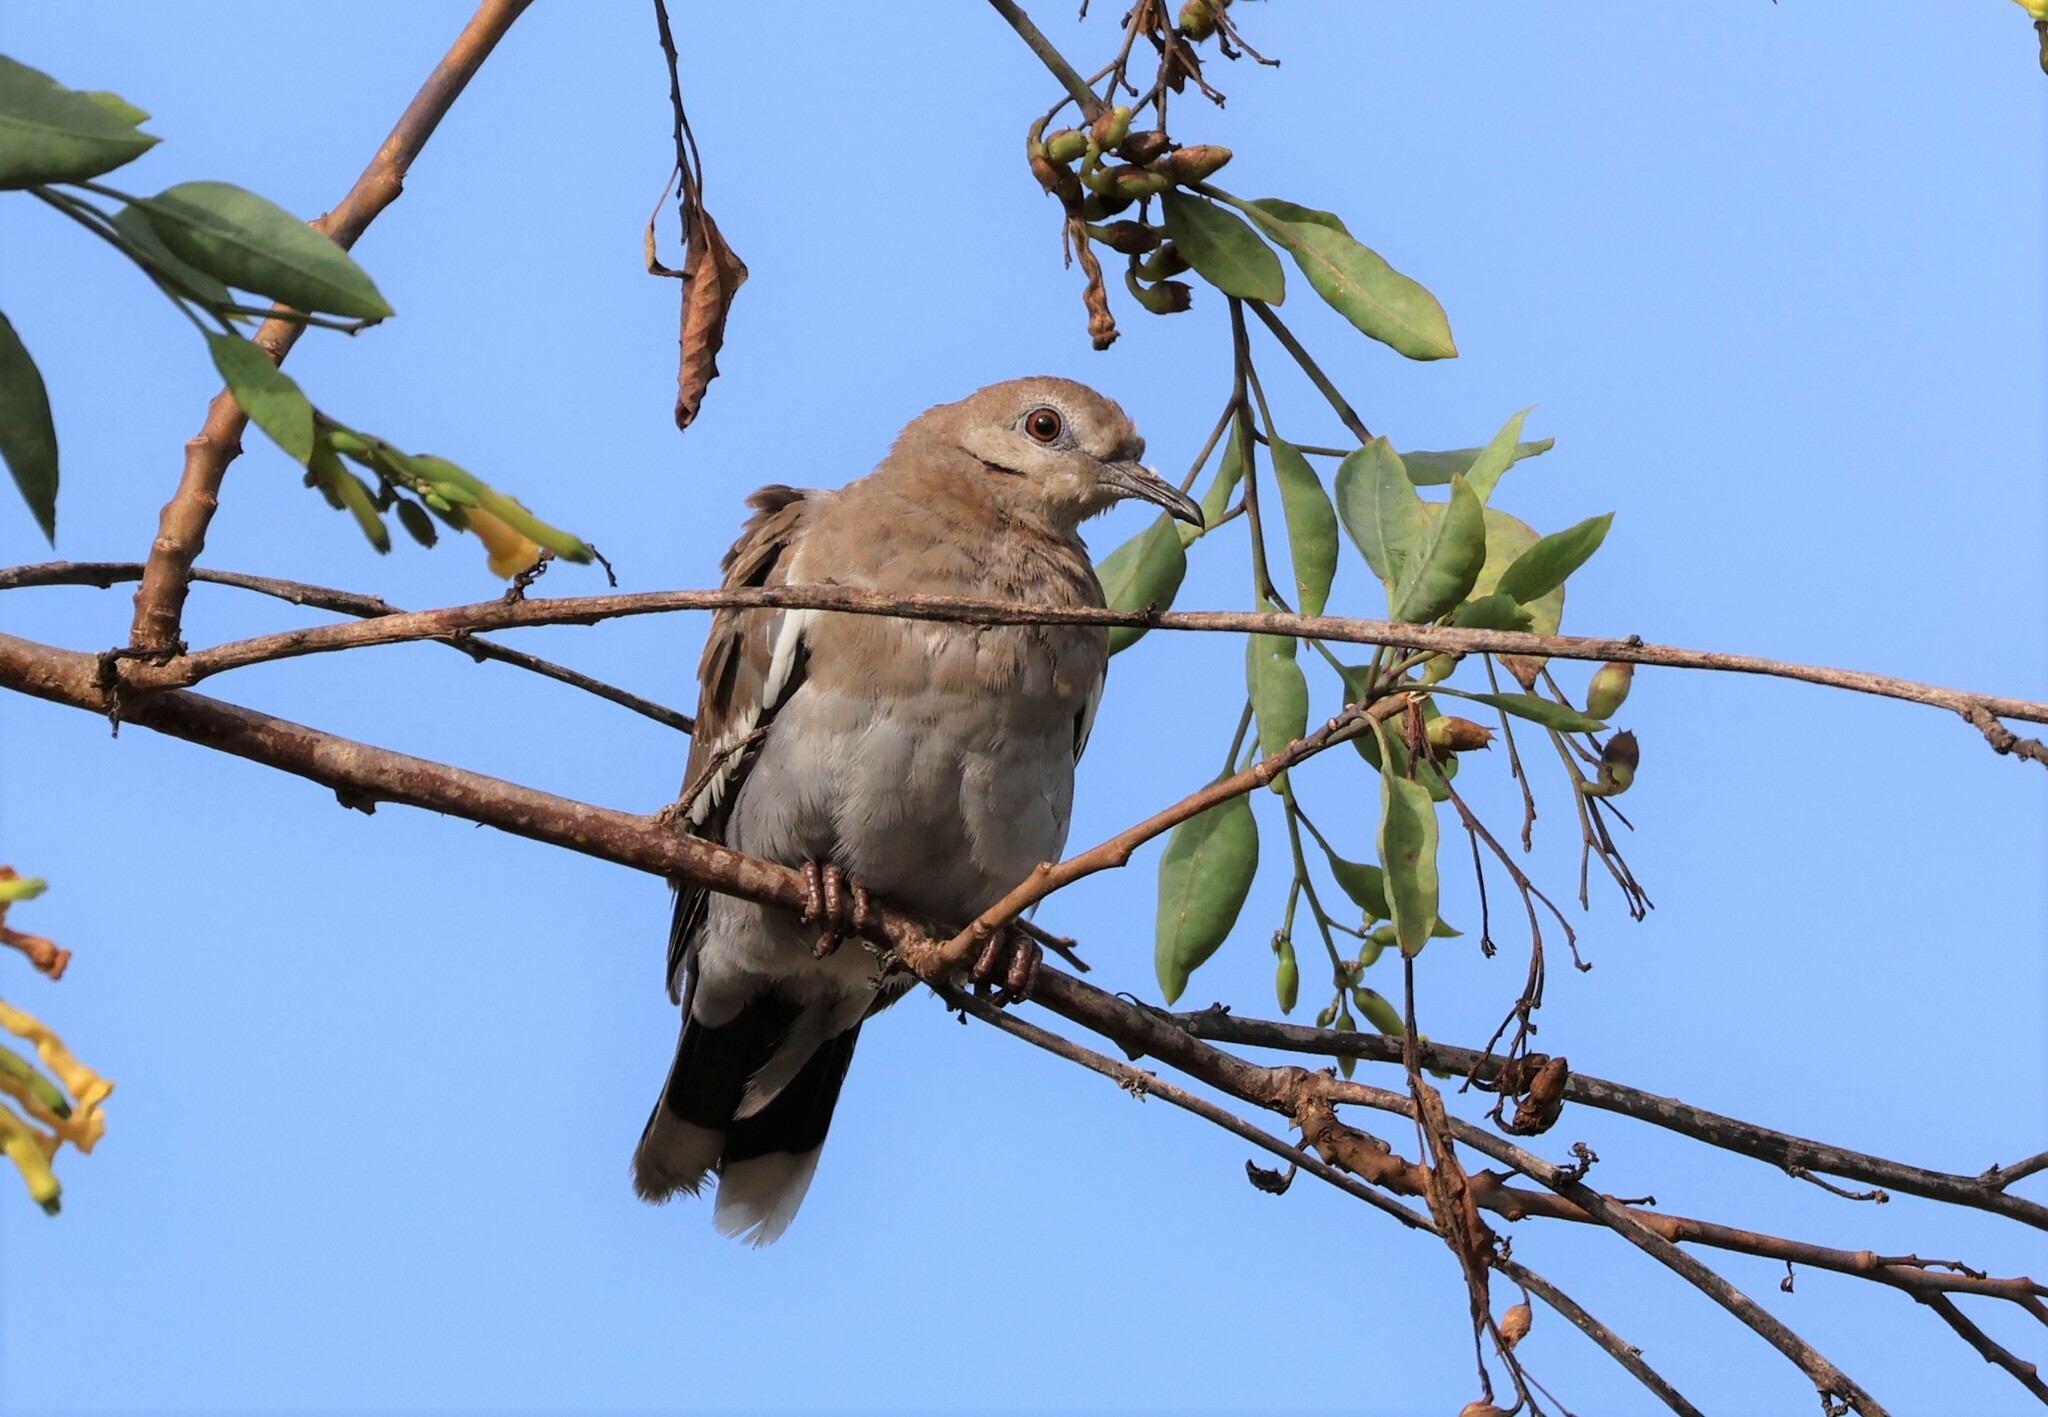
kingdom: Animalia
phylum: Chordata
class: Aves
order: Columbiformes
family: Columbidae
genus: Zenaida
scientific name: Zenaida asiatica
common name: White-winged dove
